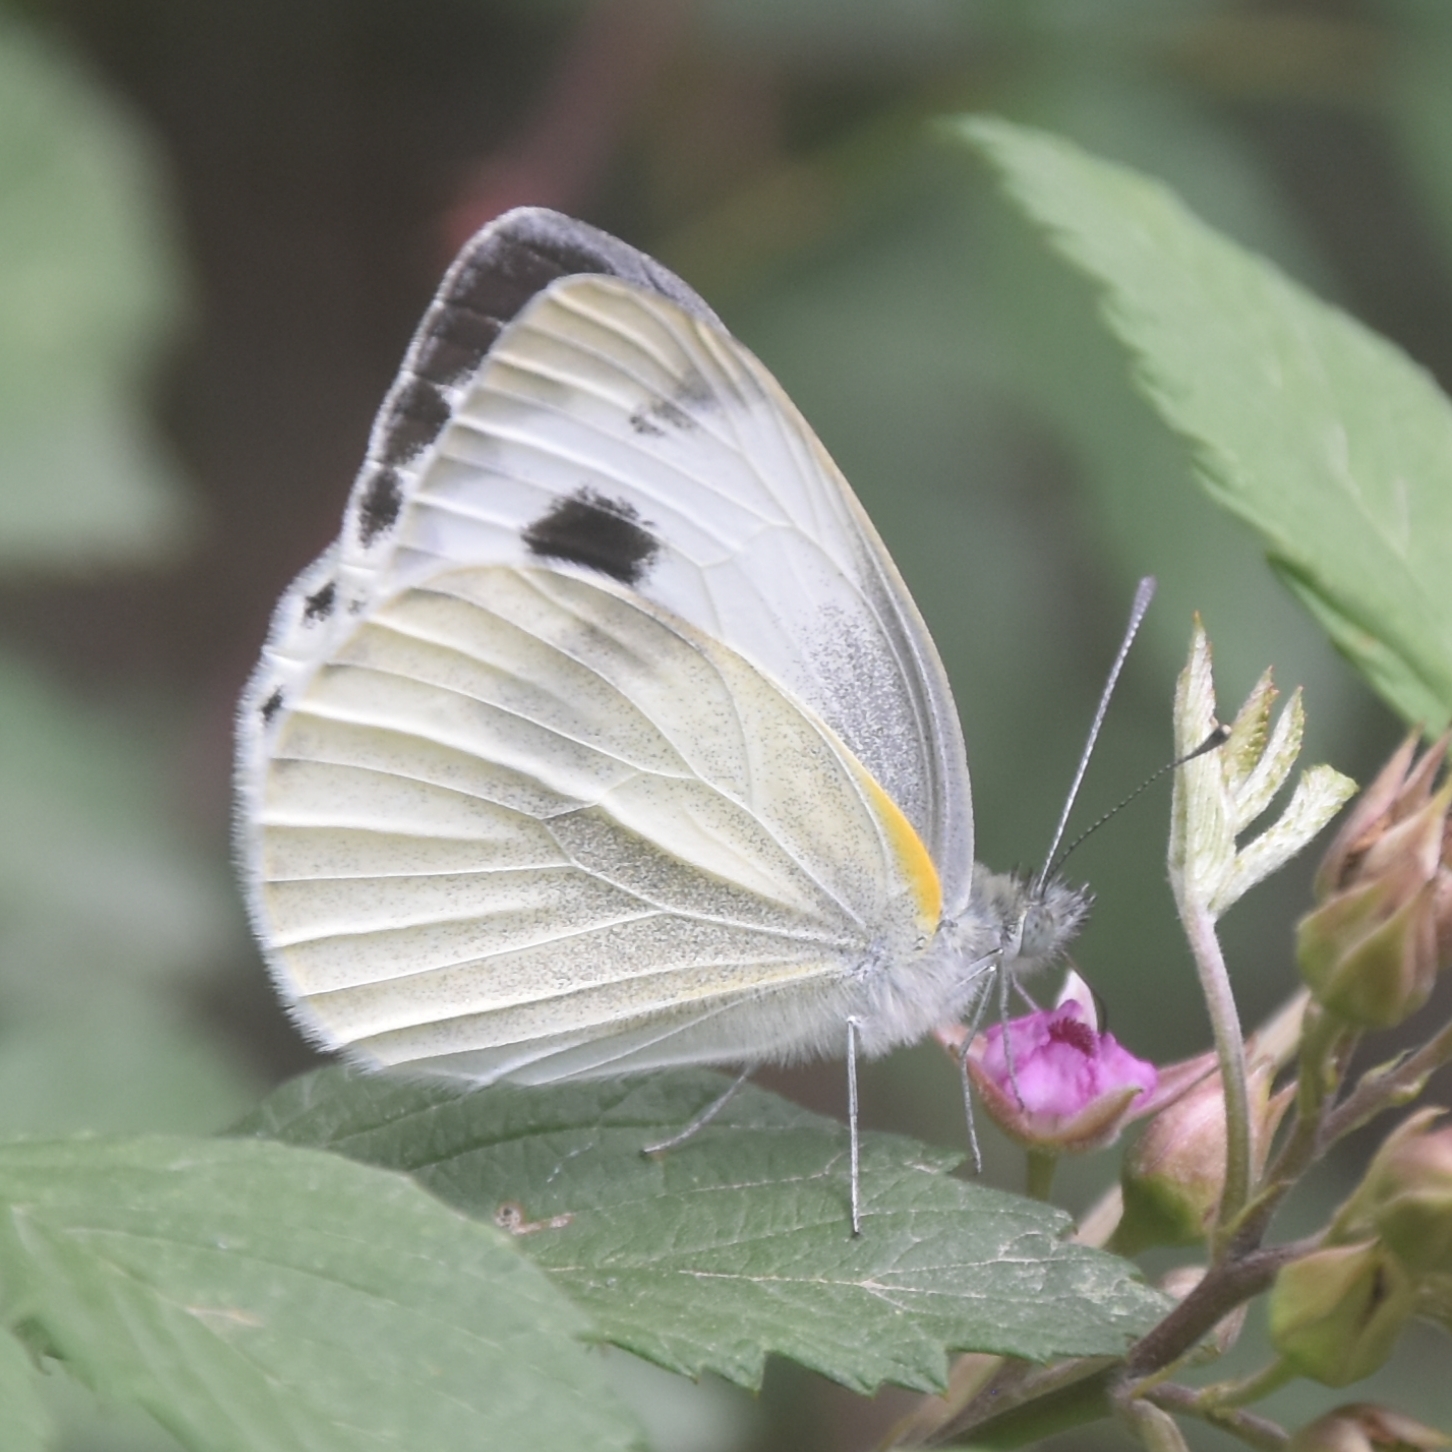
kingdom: Animalia
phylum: Arthropoda
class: Insecta
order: Lepidoptera
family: Pieridae
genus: Pieris
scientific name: Pieris canidia
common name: Indian cabbage white
